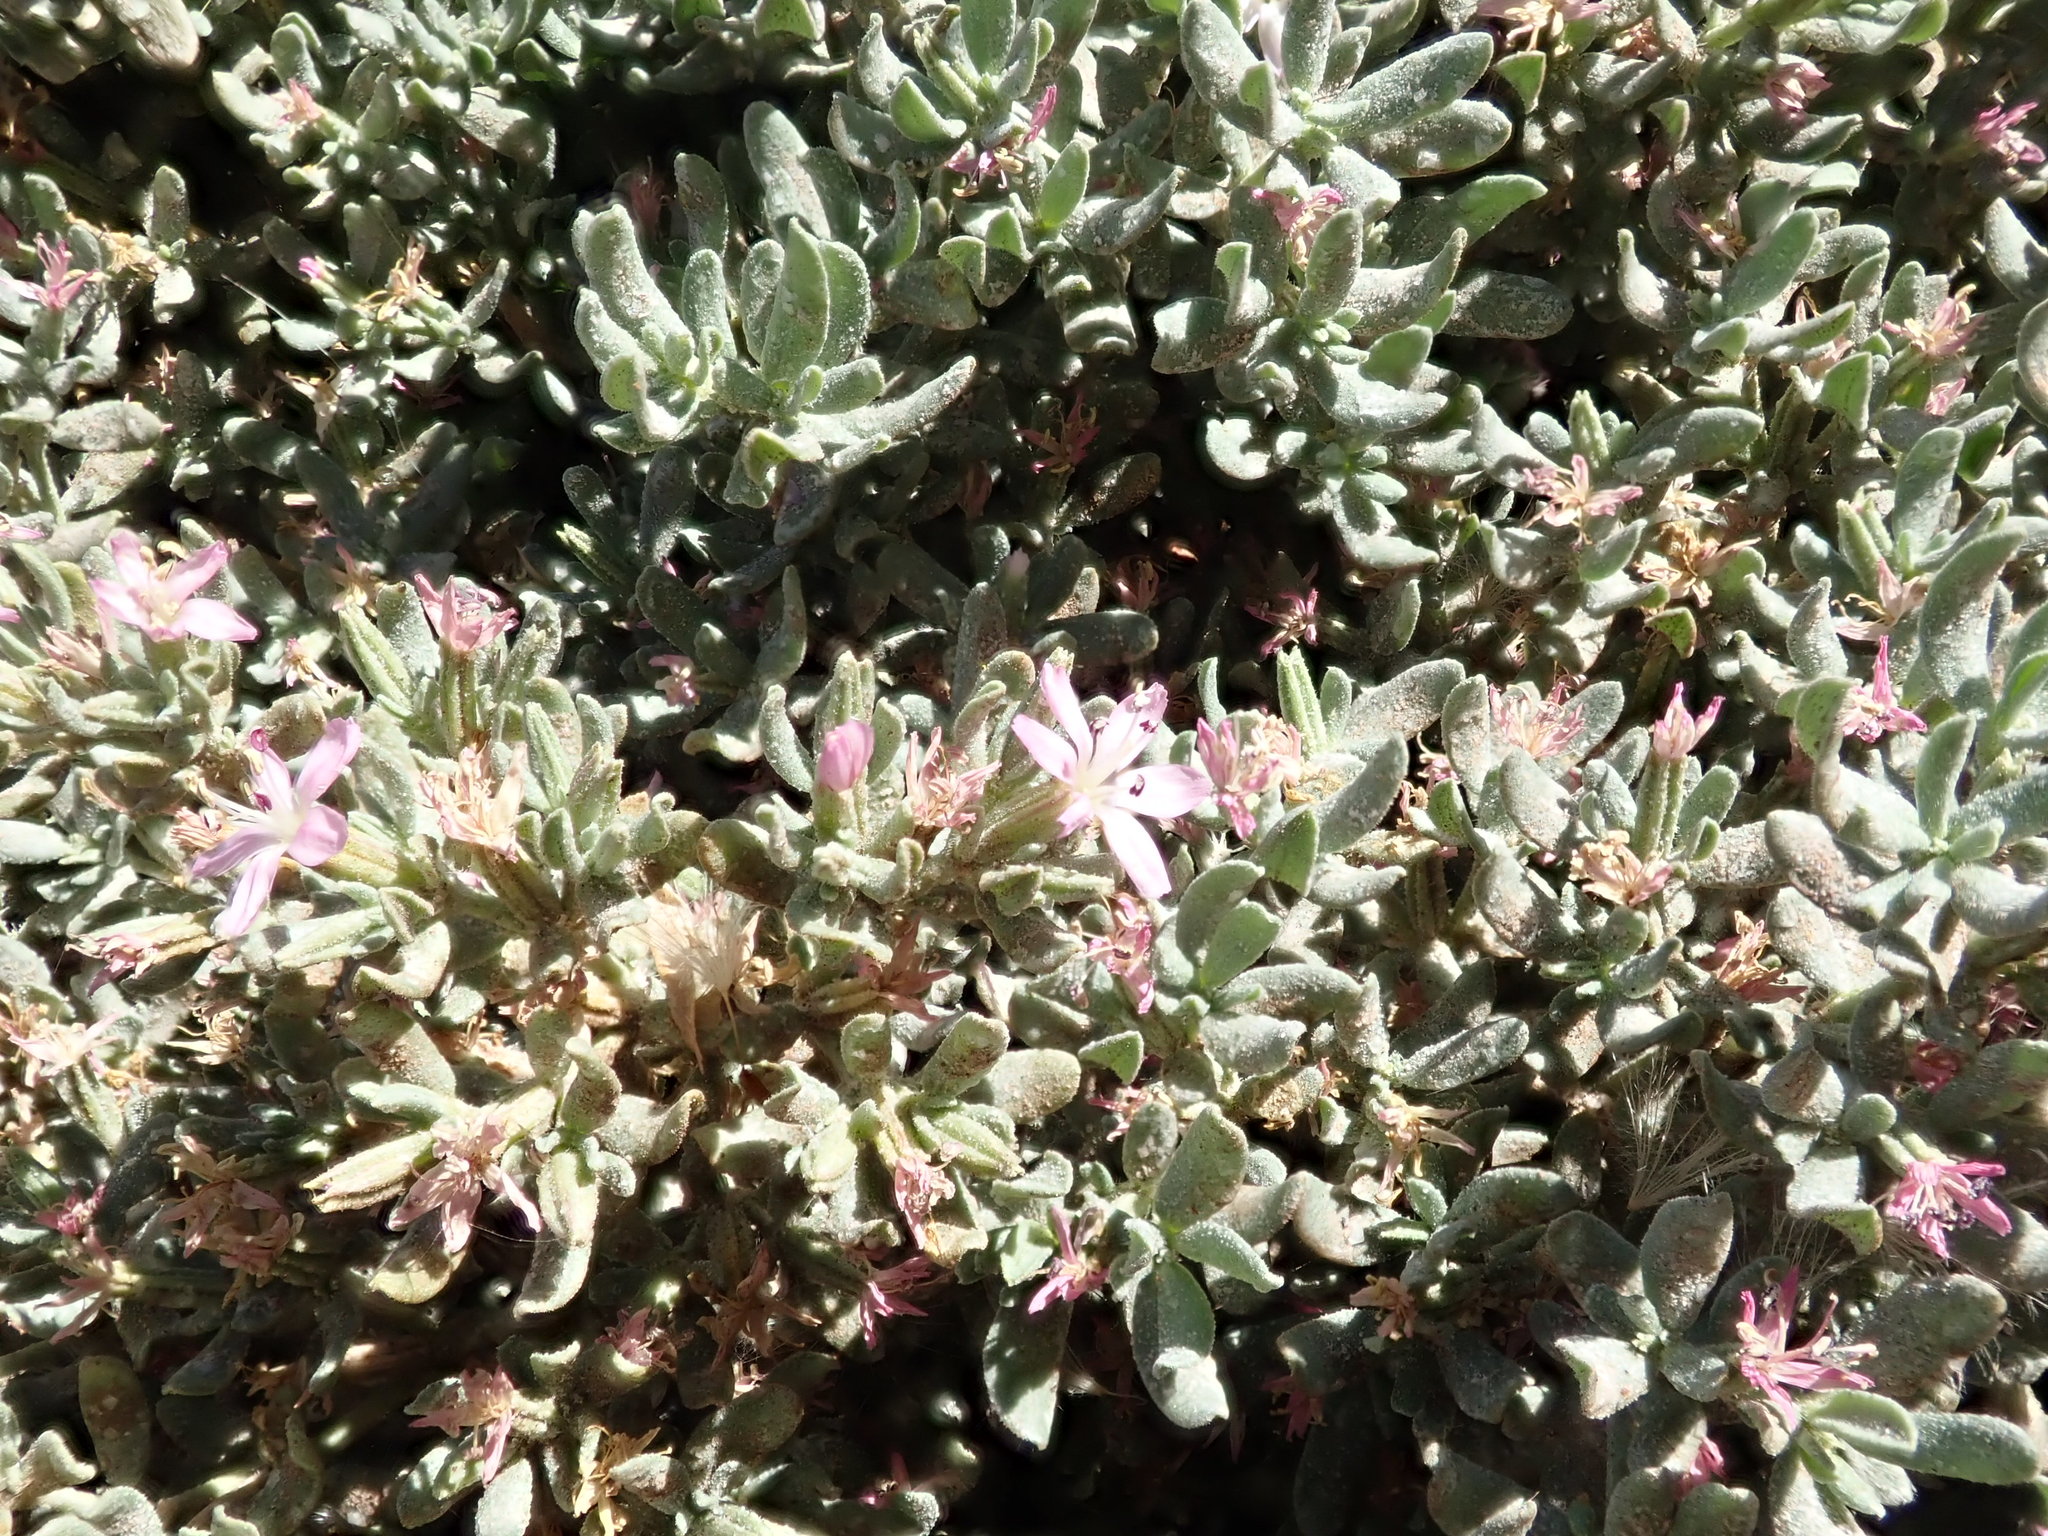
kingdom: Plantae
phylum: Tracheophyta
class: Magnoliopsida
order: Caryophyllales
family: Frankeniaceae
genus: Frankenia
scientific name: Frankenia salina
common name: Alkali seaheath
